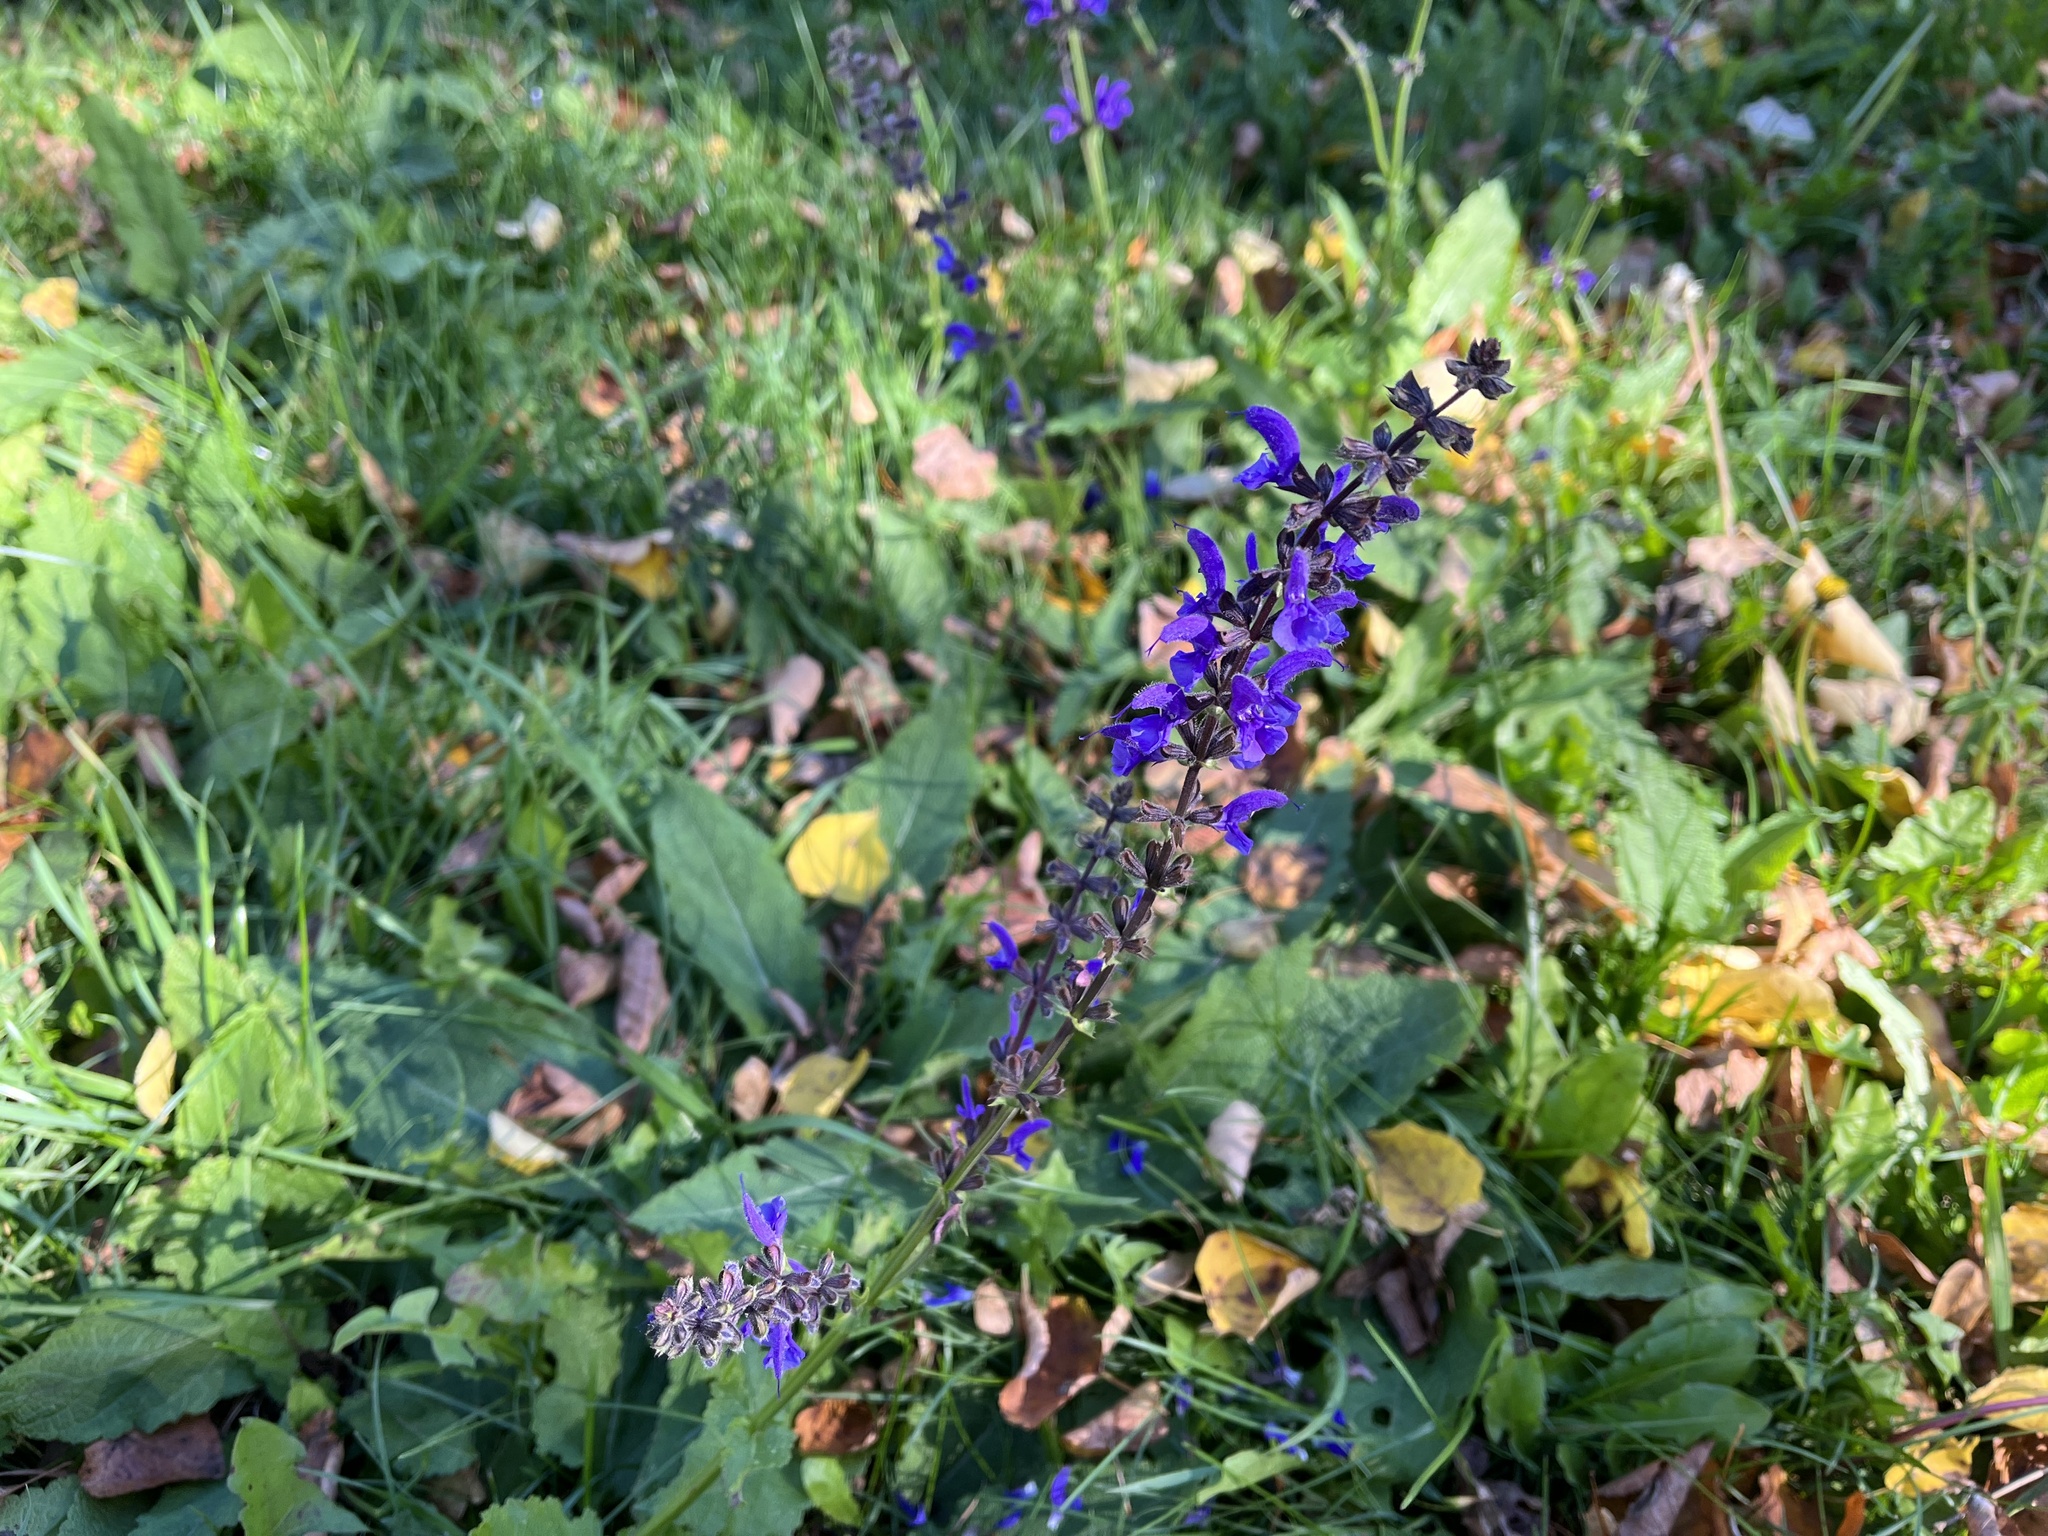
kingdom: Plantae
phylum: Tracheophyta
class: Magnoliopsida
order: Lamiales
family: Lamiaceae
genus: Salvia
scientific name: Salvia pratensis
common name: Meadow sage
